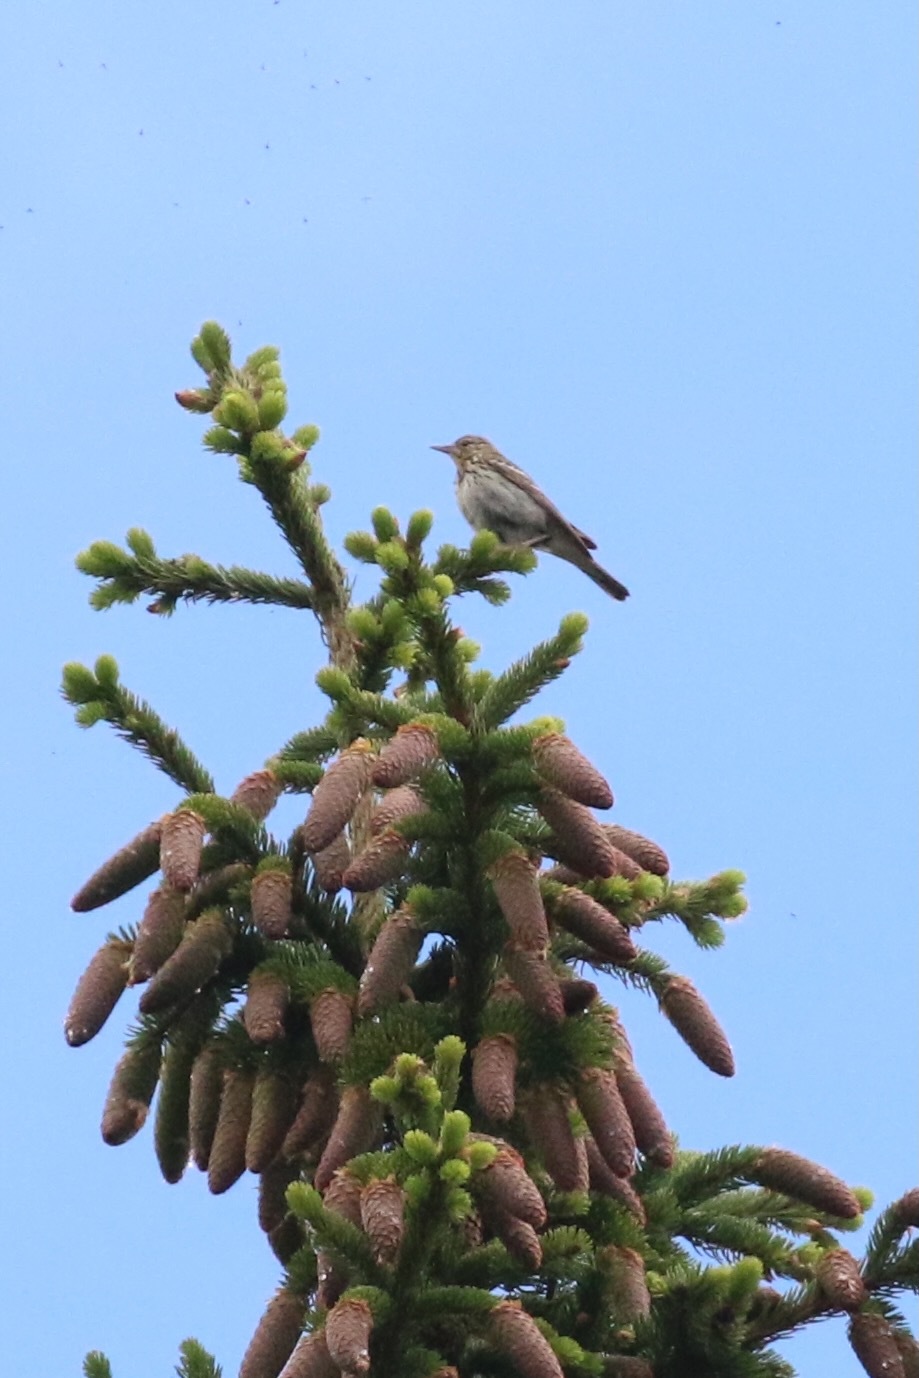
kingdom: Animalia
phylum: Chordata
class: Aves
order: Passeriformes
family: Motacillidae
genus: Anthus
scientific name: Anthus trivialis
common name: Tree pipit
